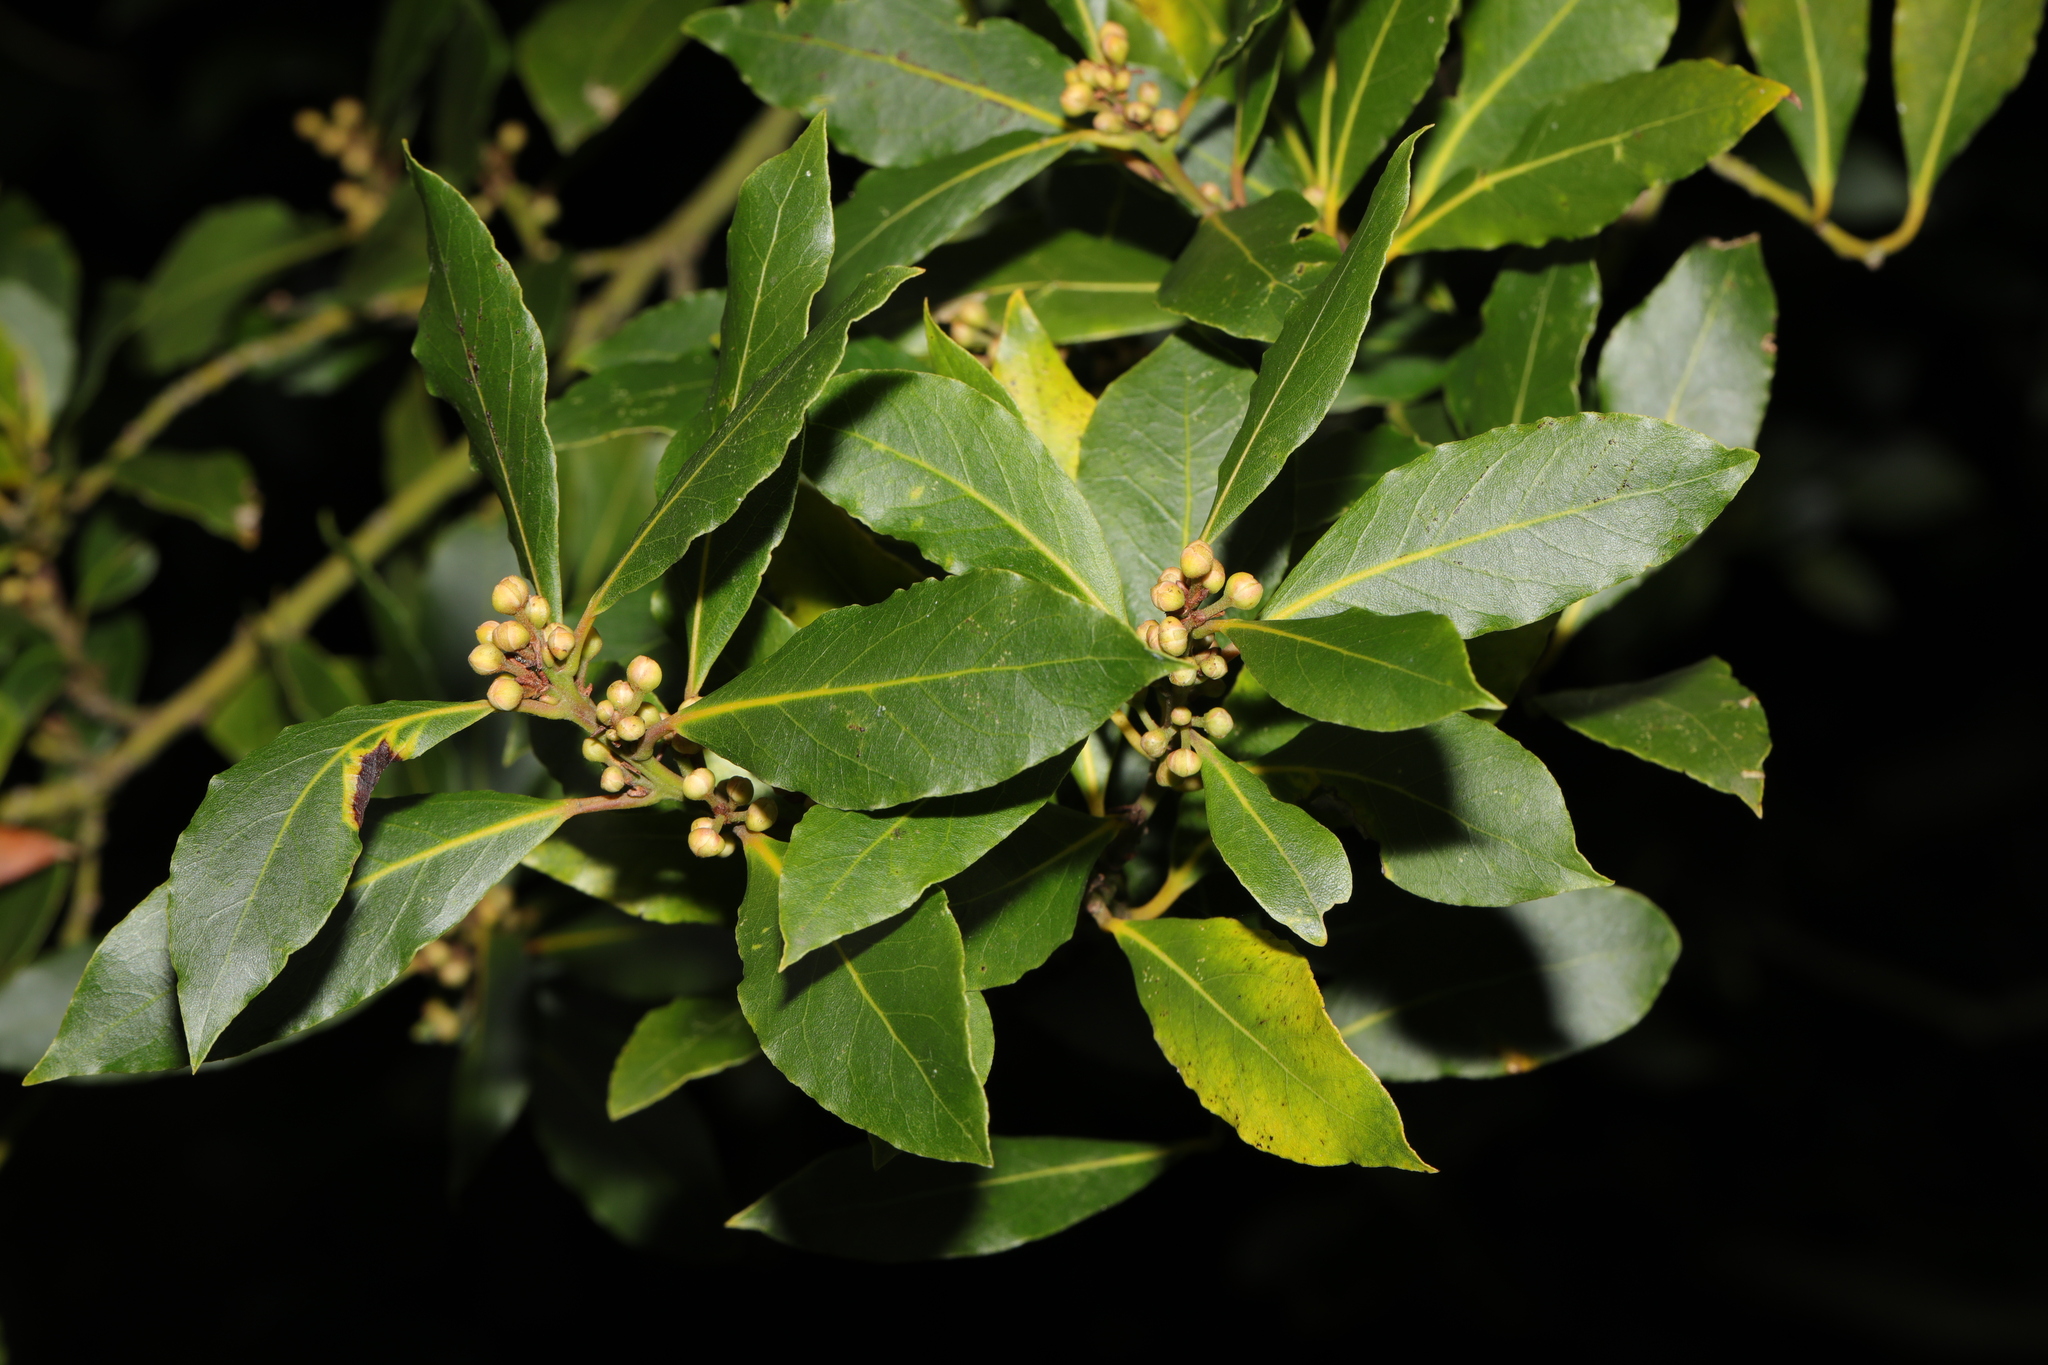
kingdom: Plantae
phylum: Tracheophyta
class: Magnoliopsida
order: Laurales
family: Lauraceae
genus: Laurus
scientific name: Laurus nobilis
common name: Bay
